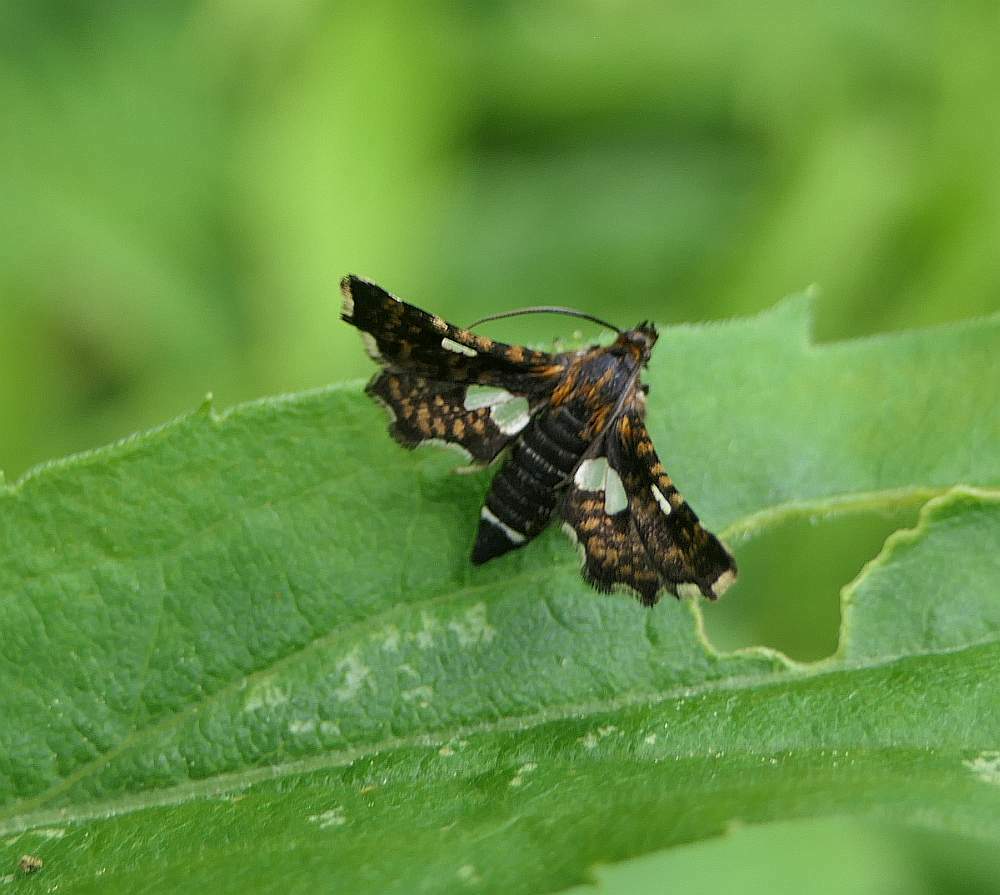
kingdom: Animalia
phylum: Arthropoda
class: Insecta
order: Lepidoptera
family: Thyrididae
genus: Thyris
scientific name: Thyris maculata
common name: Spotted thyris moth
